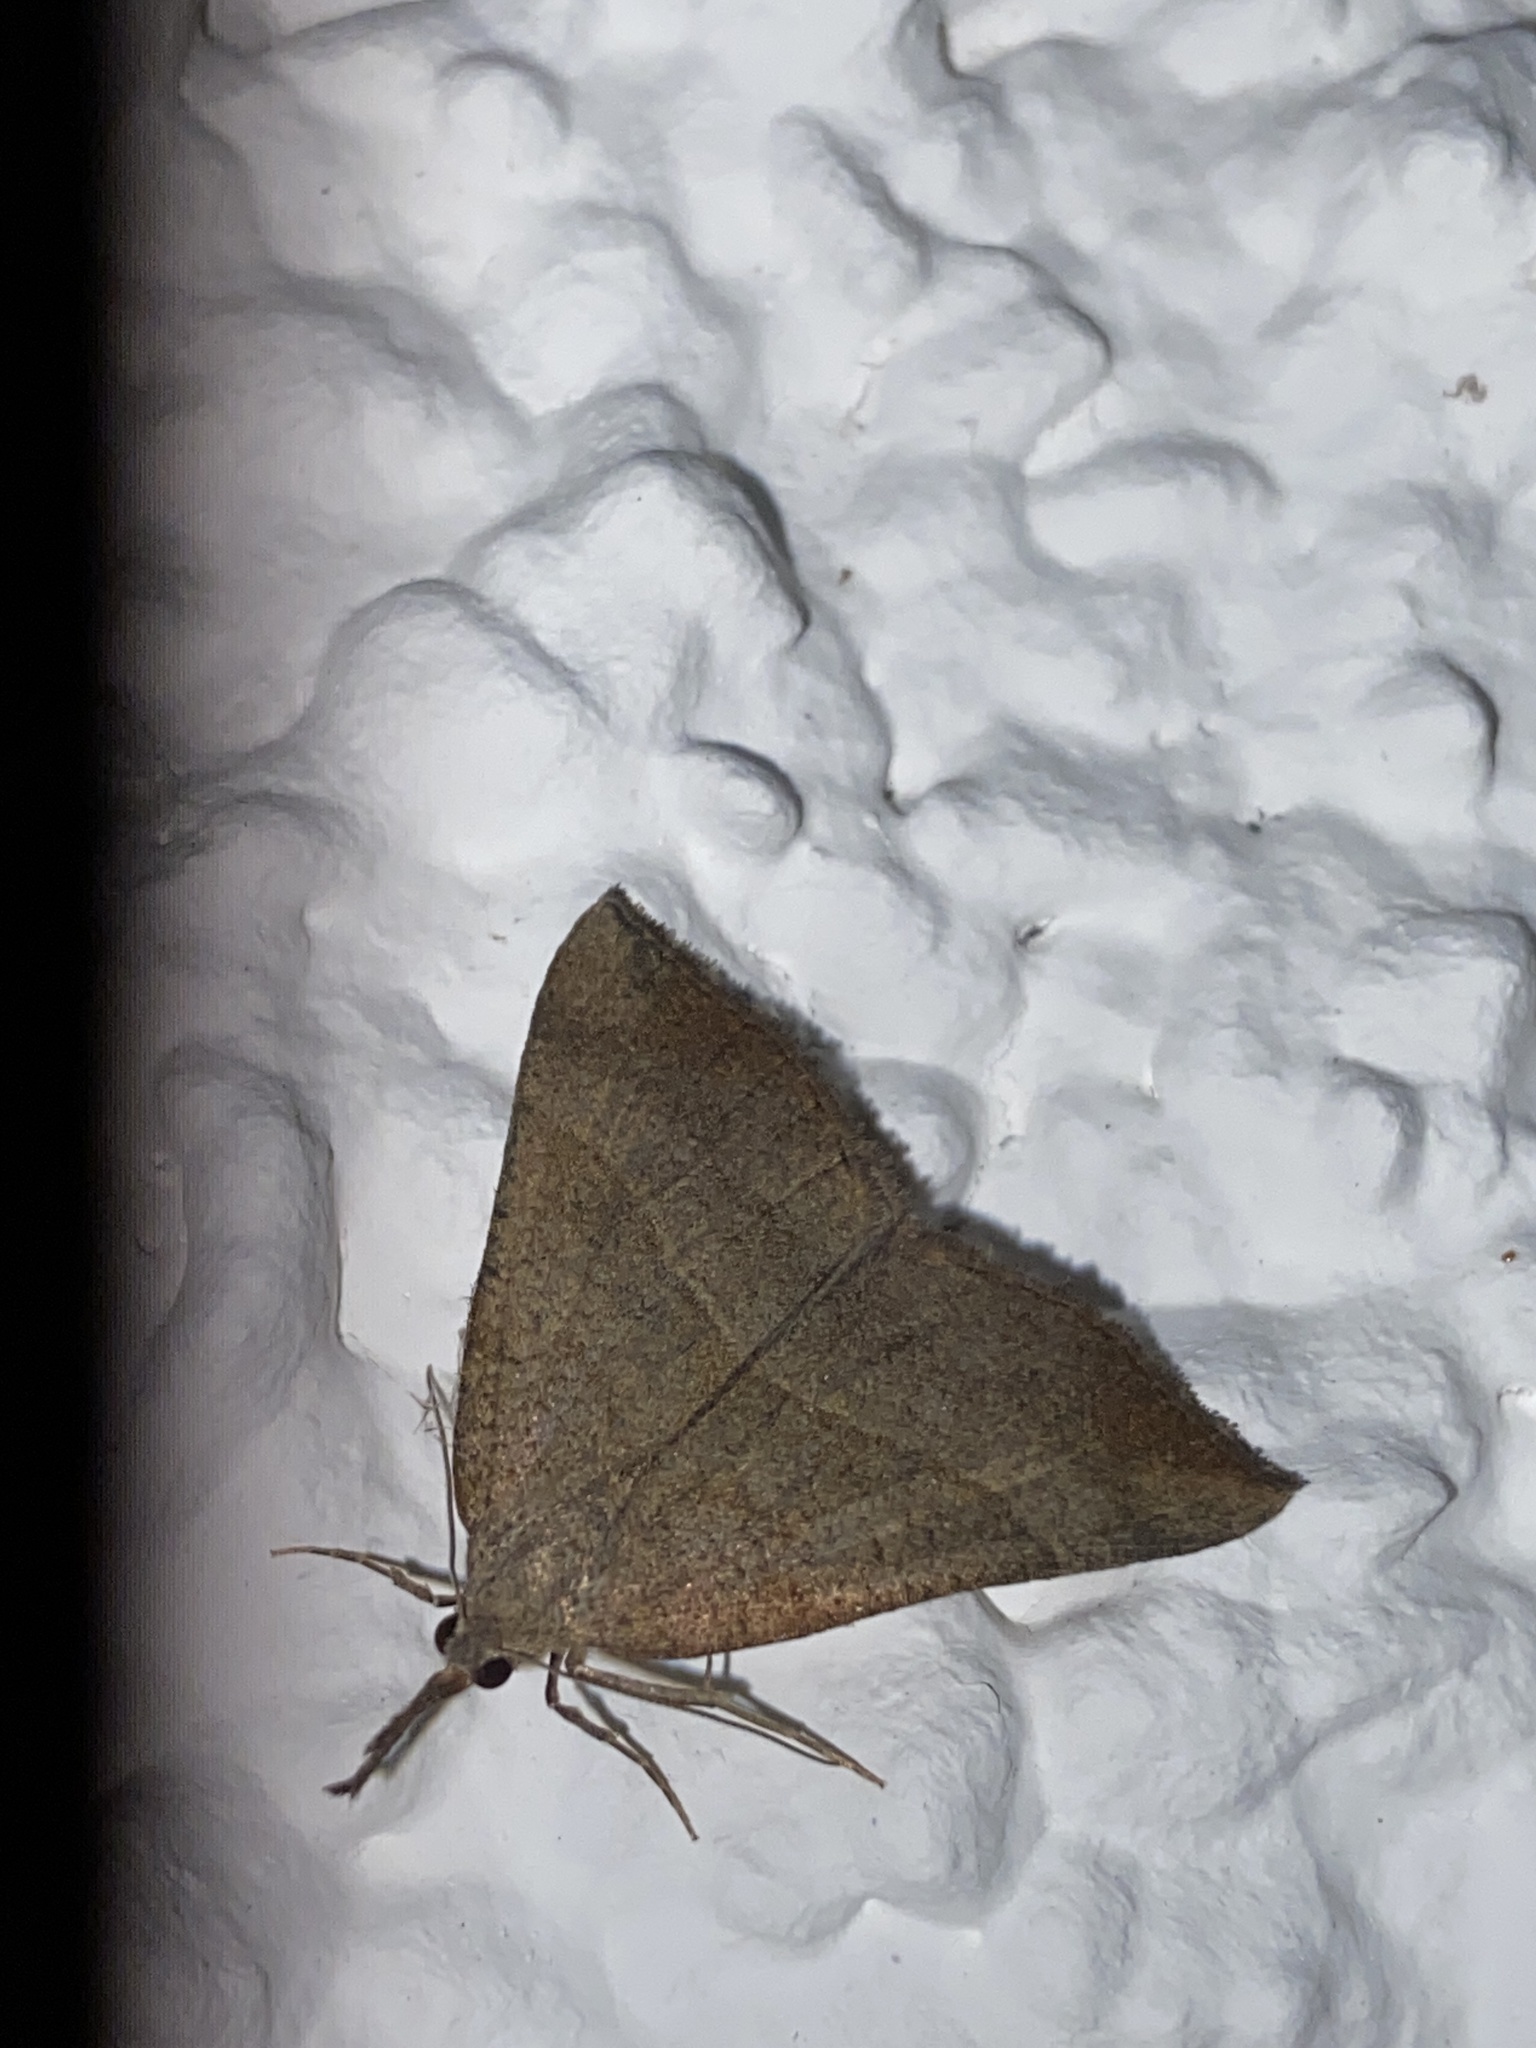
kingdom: Animalia
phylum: Arthropoda
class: Insecta
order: Lepidoptera
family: Erebidae
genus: Hypena
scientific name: Hypena proboscidalis
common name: Snout
